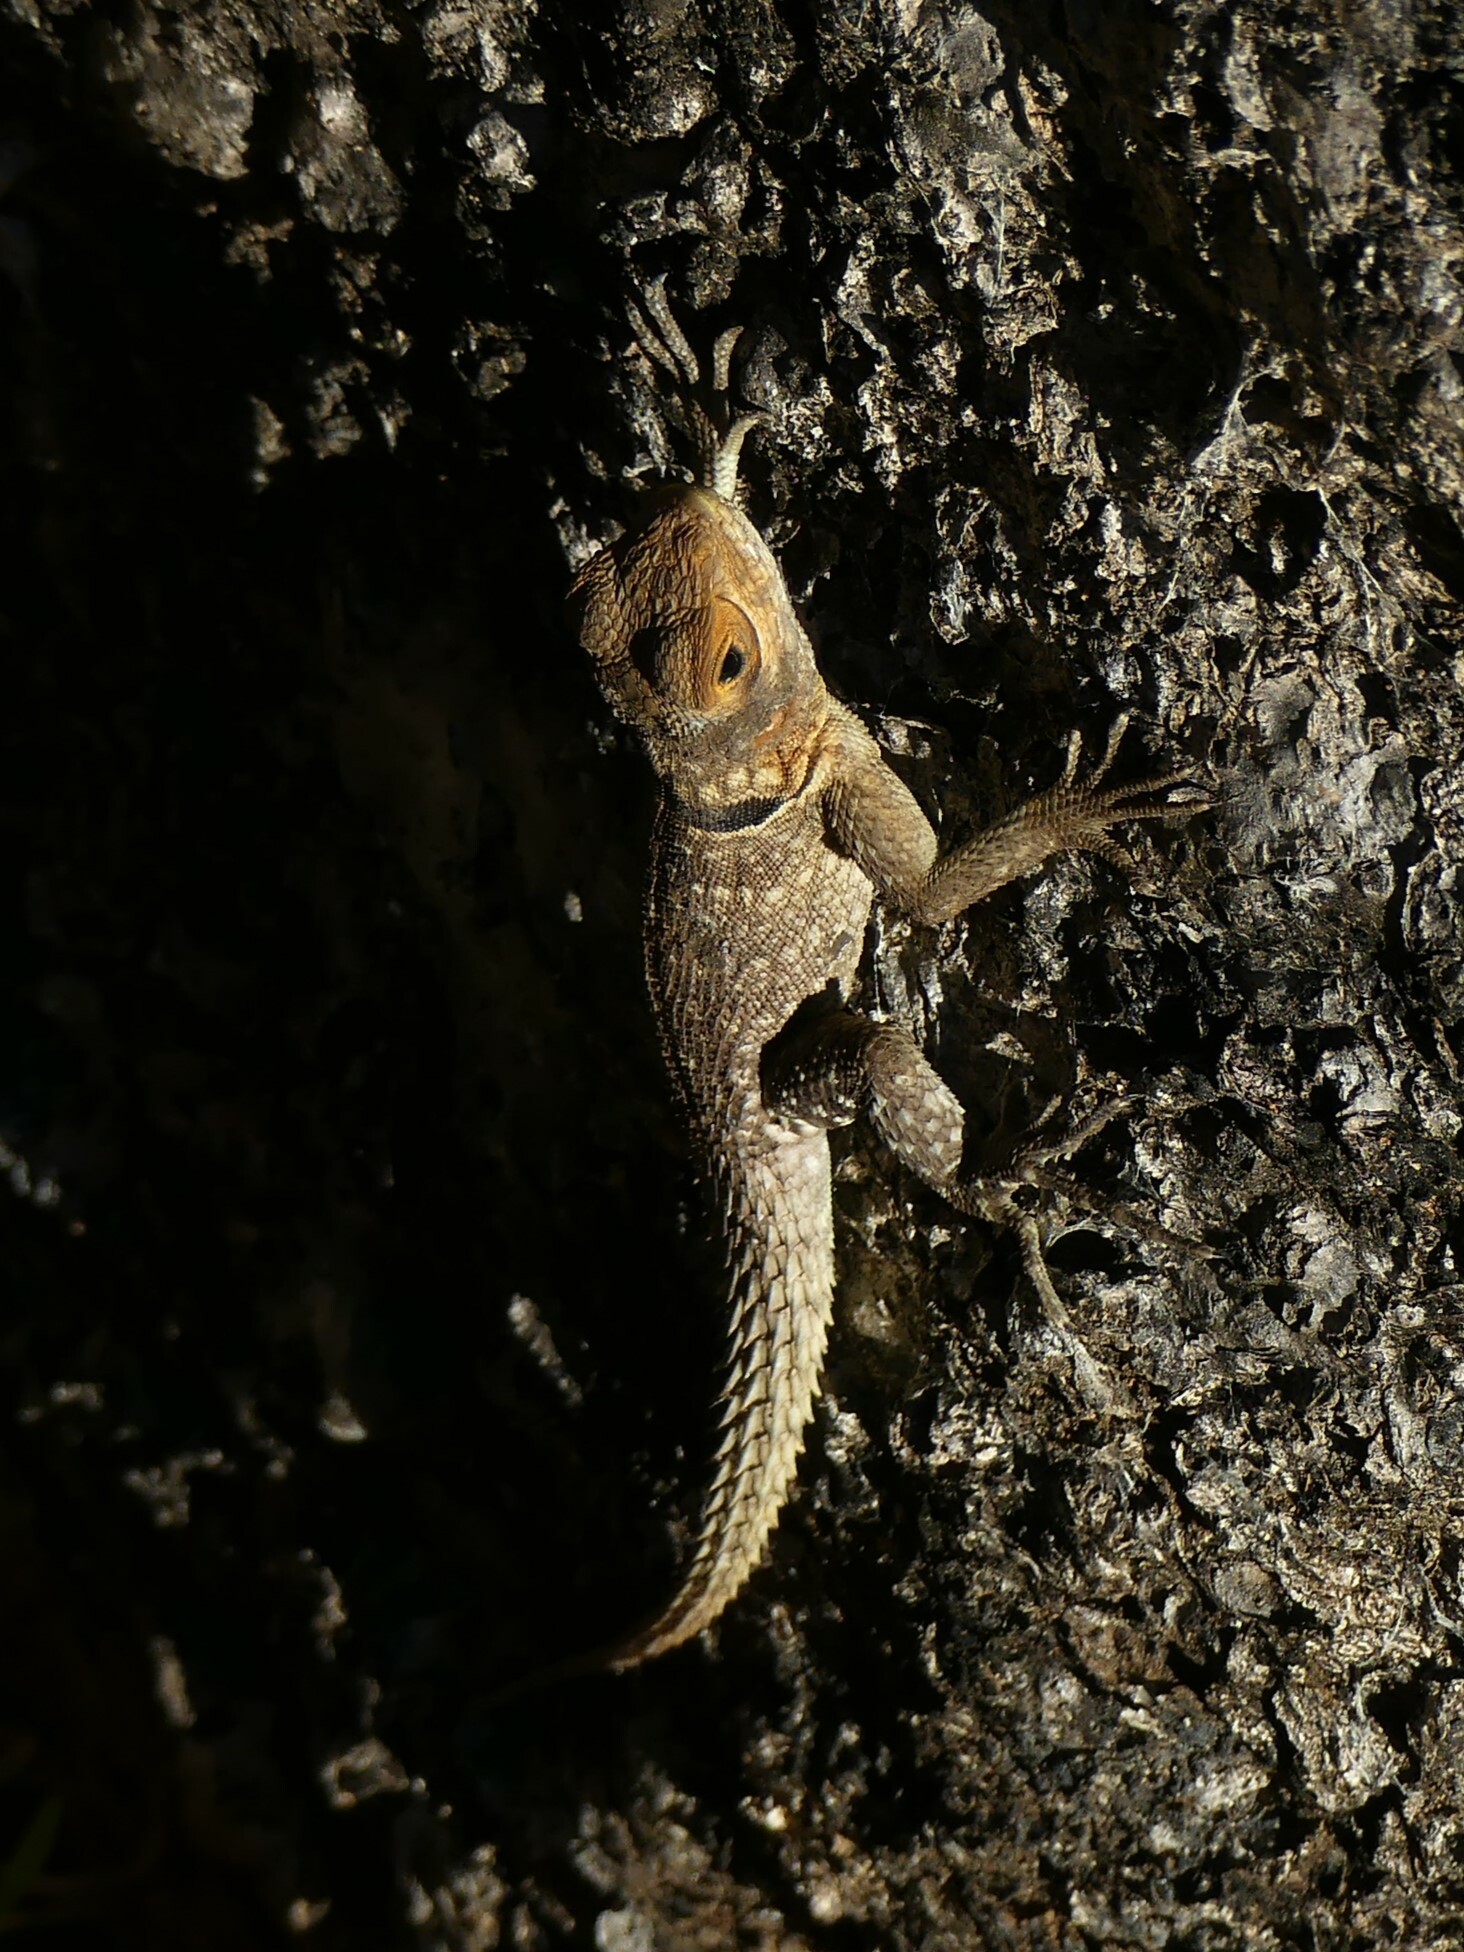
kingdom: Animalia
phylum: Chordata
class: Squamata
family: Opluridae
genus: Oplurus
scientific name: Oplurus cuvieri
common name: Cuvier's madagascar swift
